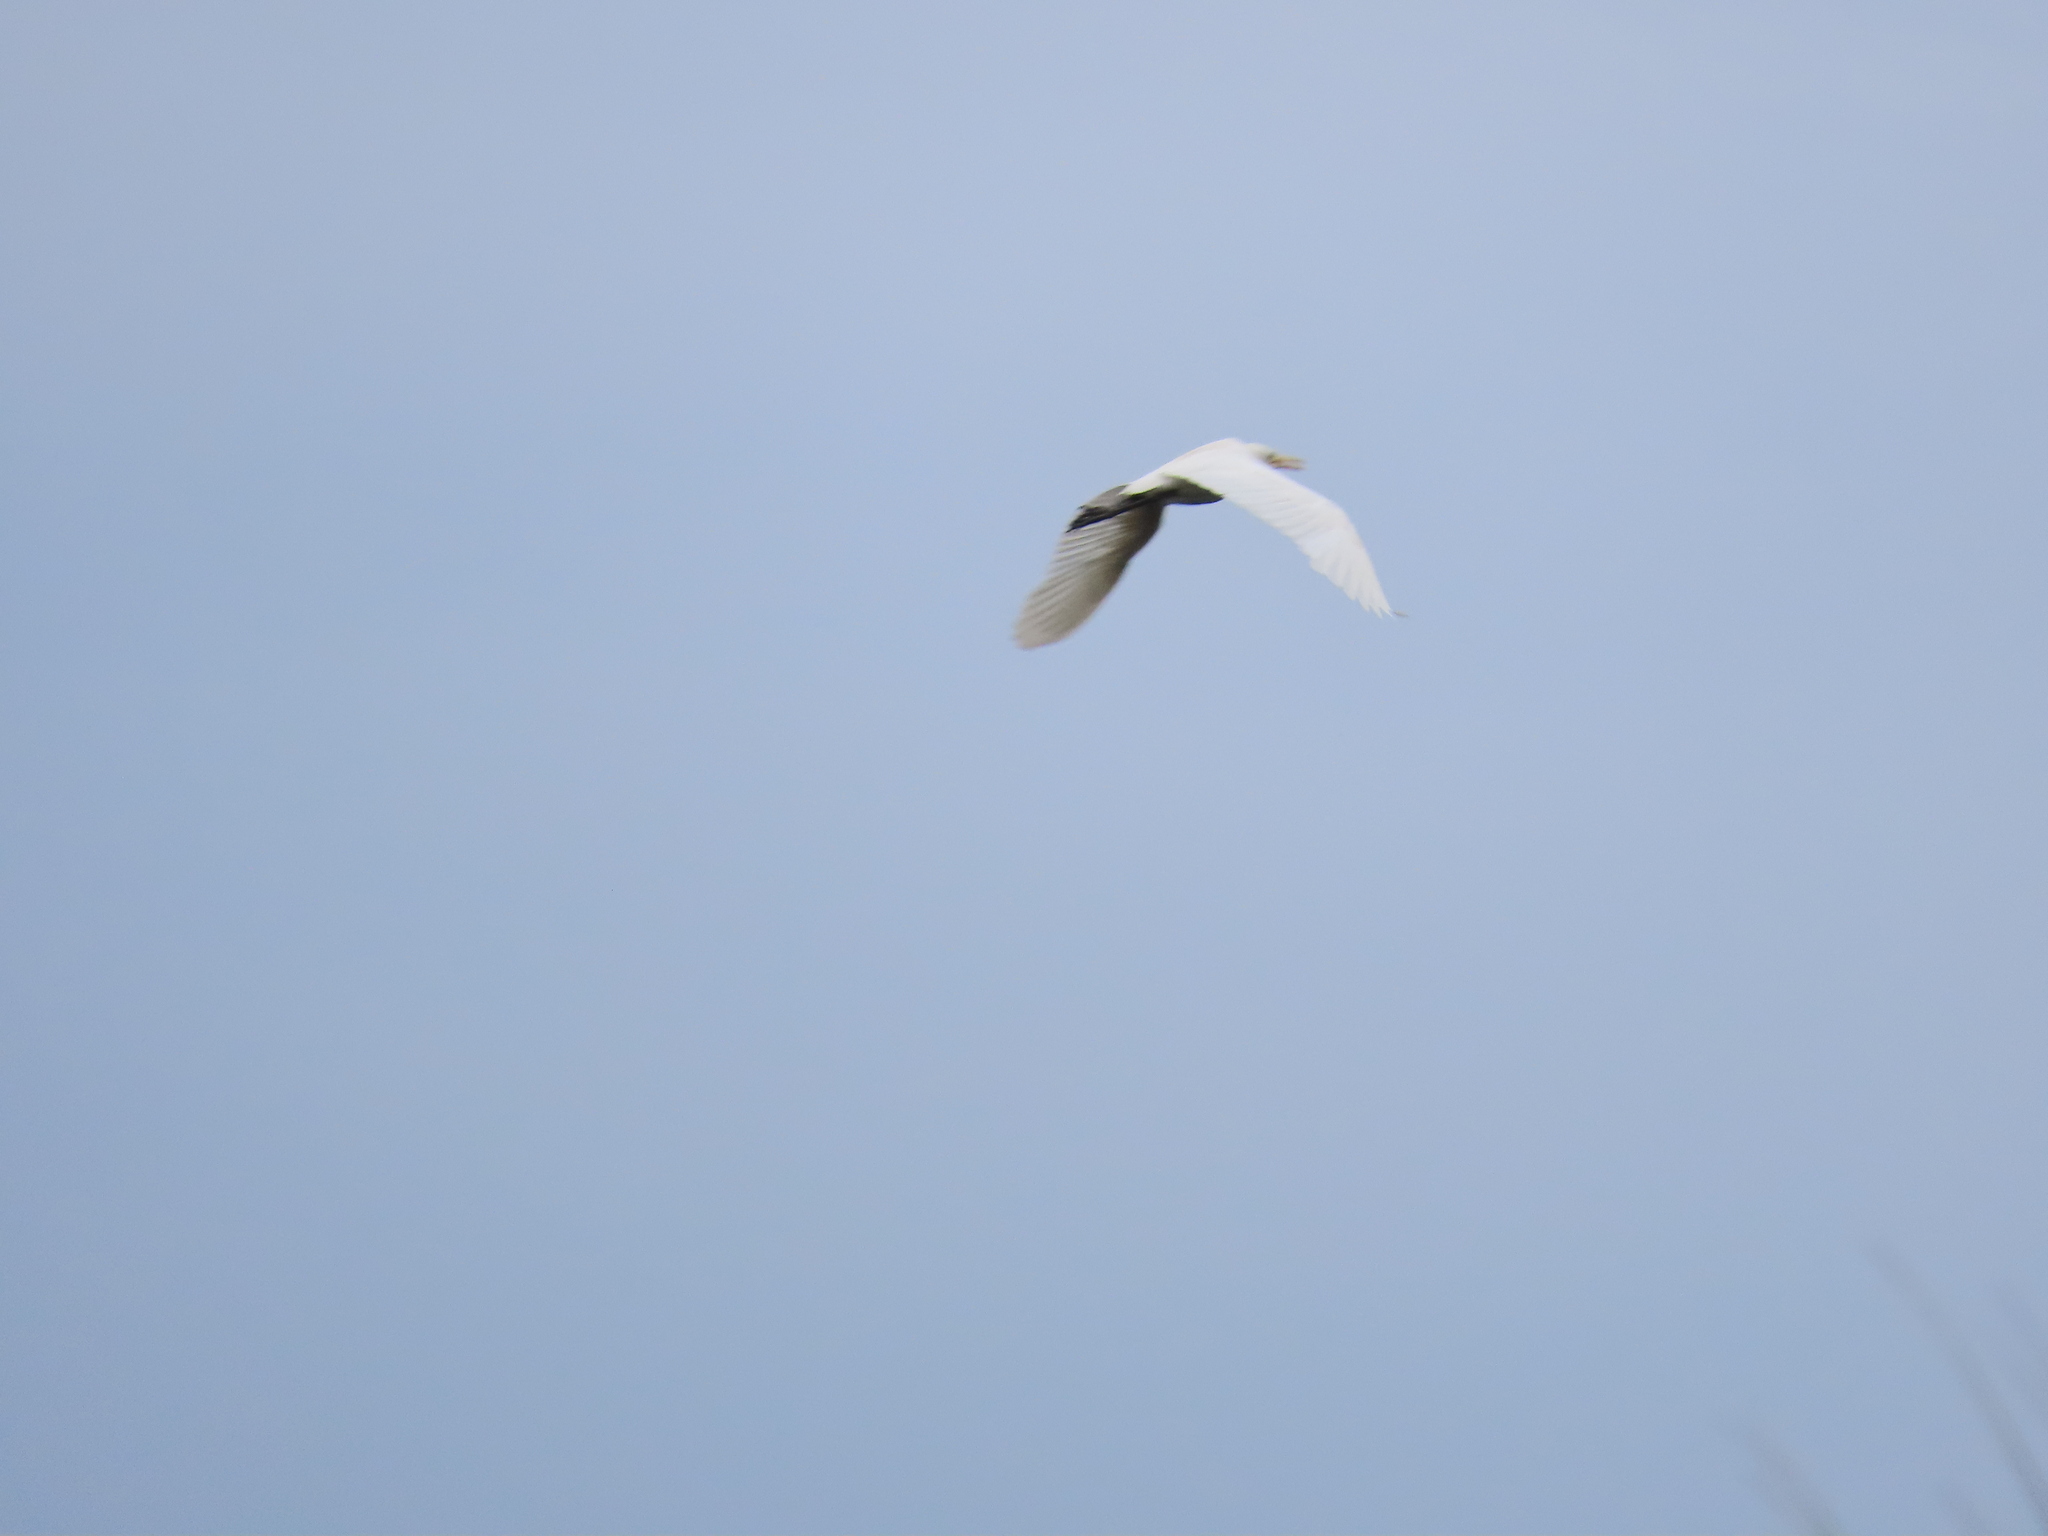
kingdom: Animalia
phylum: Chordata
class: Aves
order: Pelecaniformes
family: Ardeidae
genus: Bubulcus
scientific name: Bubulcus coromandus
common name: Eastern cattle egret
